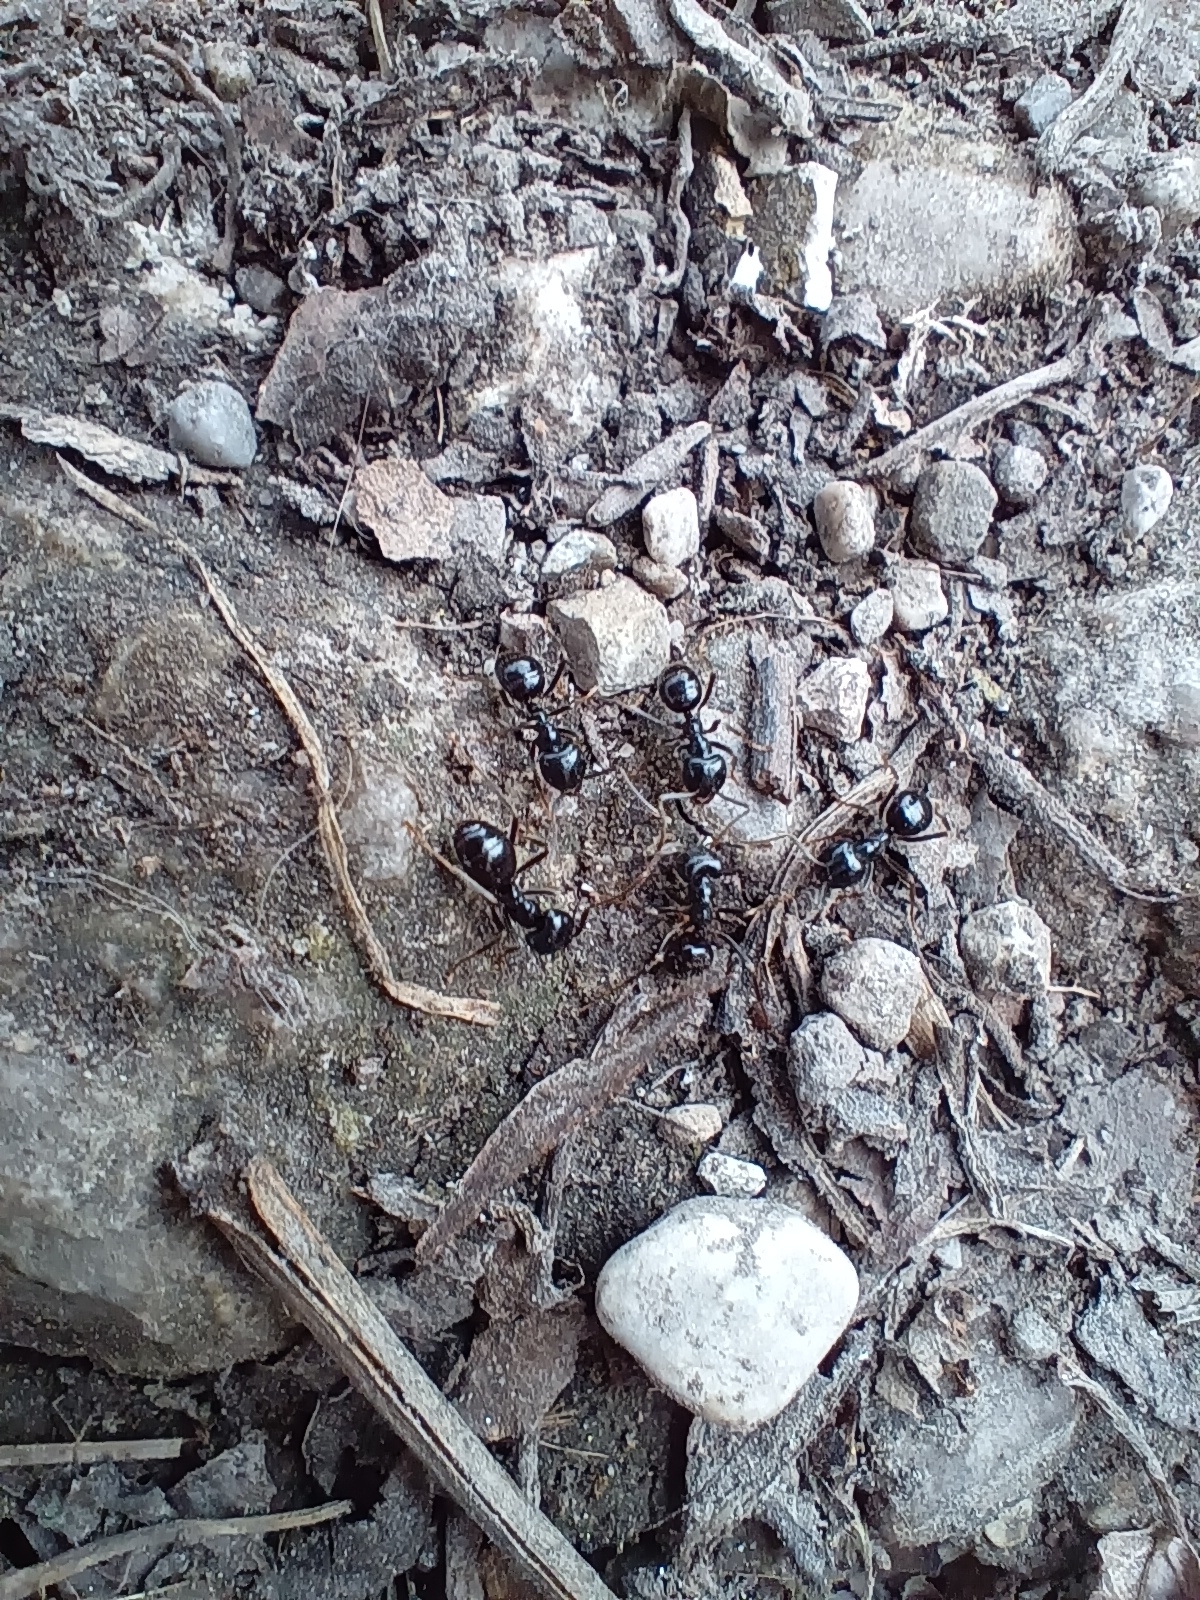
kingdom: Animalia
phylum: Arthropoda
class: Insecta
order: Hymenoptera
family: Formicidae
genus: Lasius
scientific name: Lasius fuliginosus
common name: Jet ant
